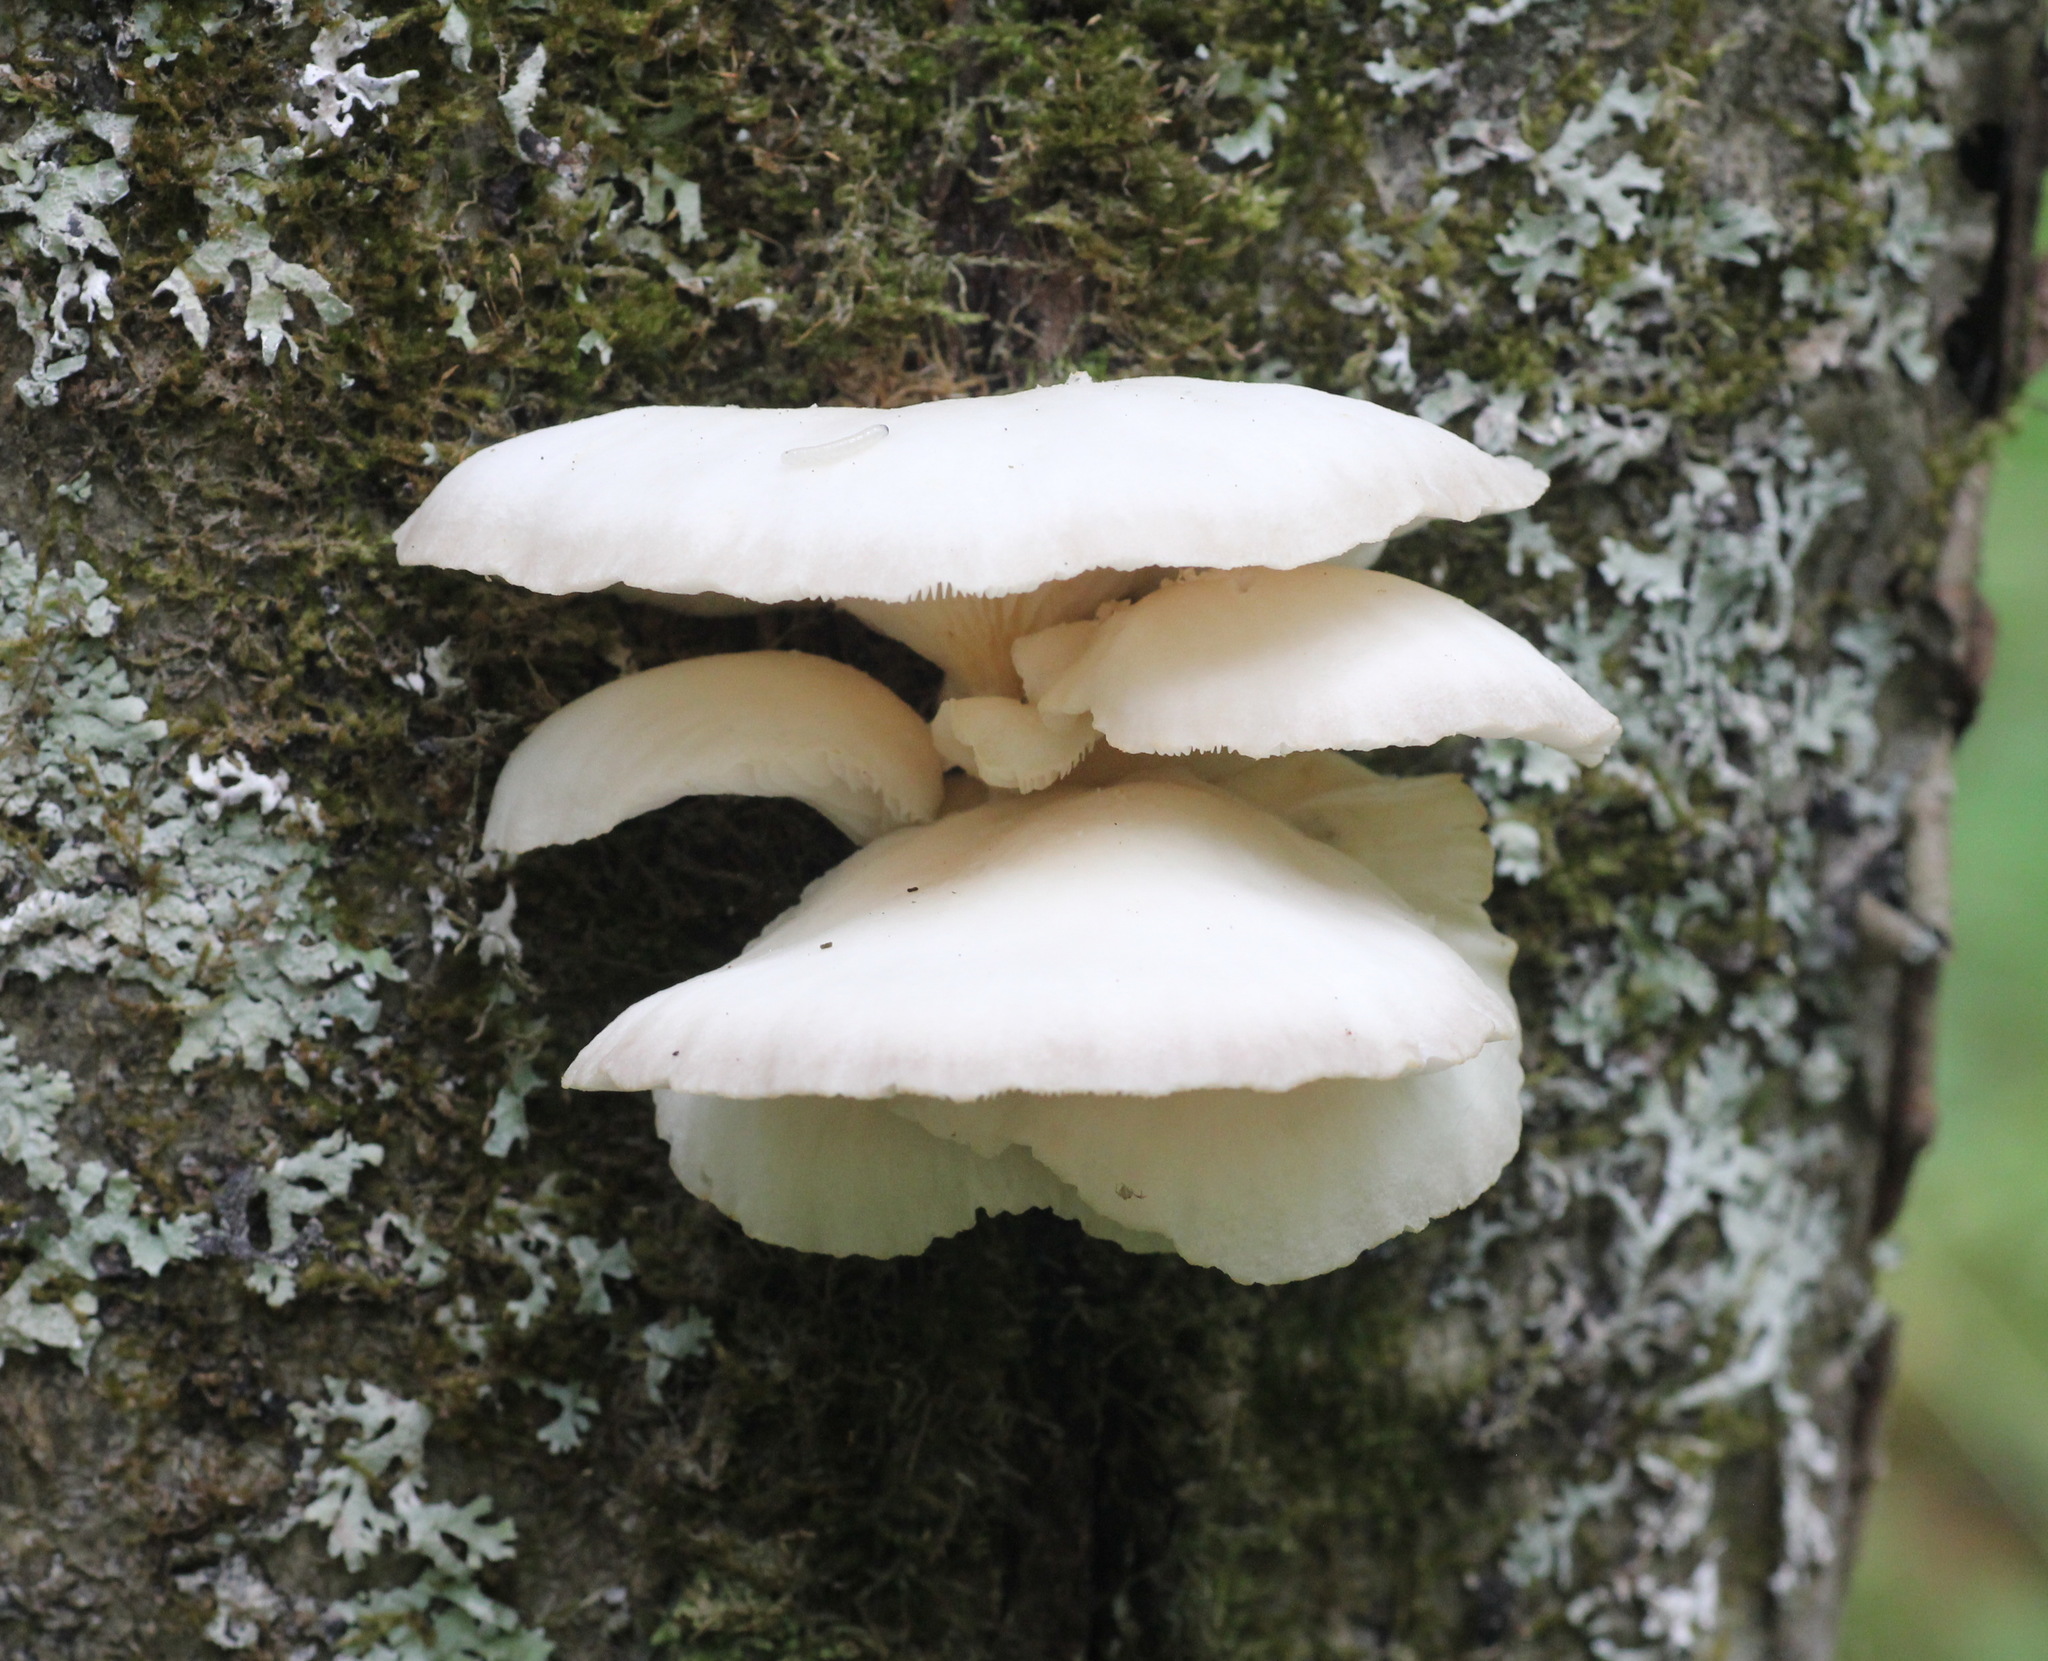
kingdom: Fungi
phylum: Basidiomycota
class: Agaricomycetes
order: Agaricales
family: Pleurotaceae
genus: Pleurotus
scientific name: Pleurotus pulmonarius
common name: Pale oyster
